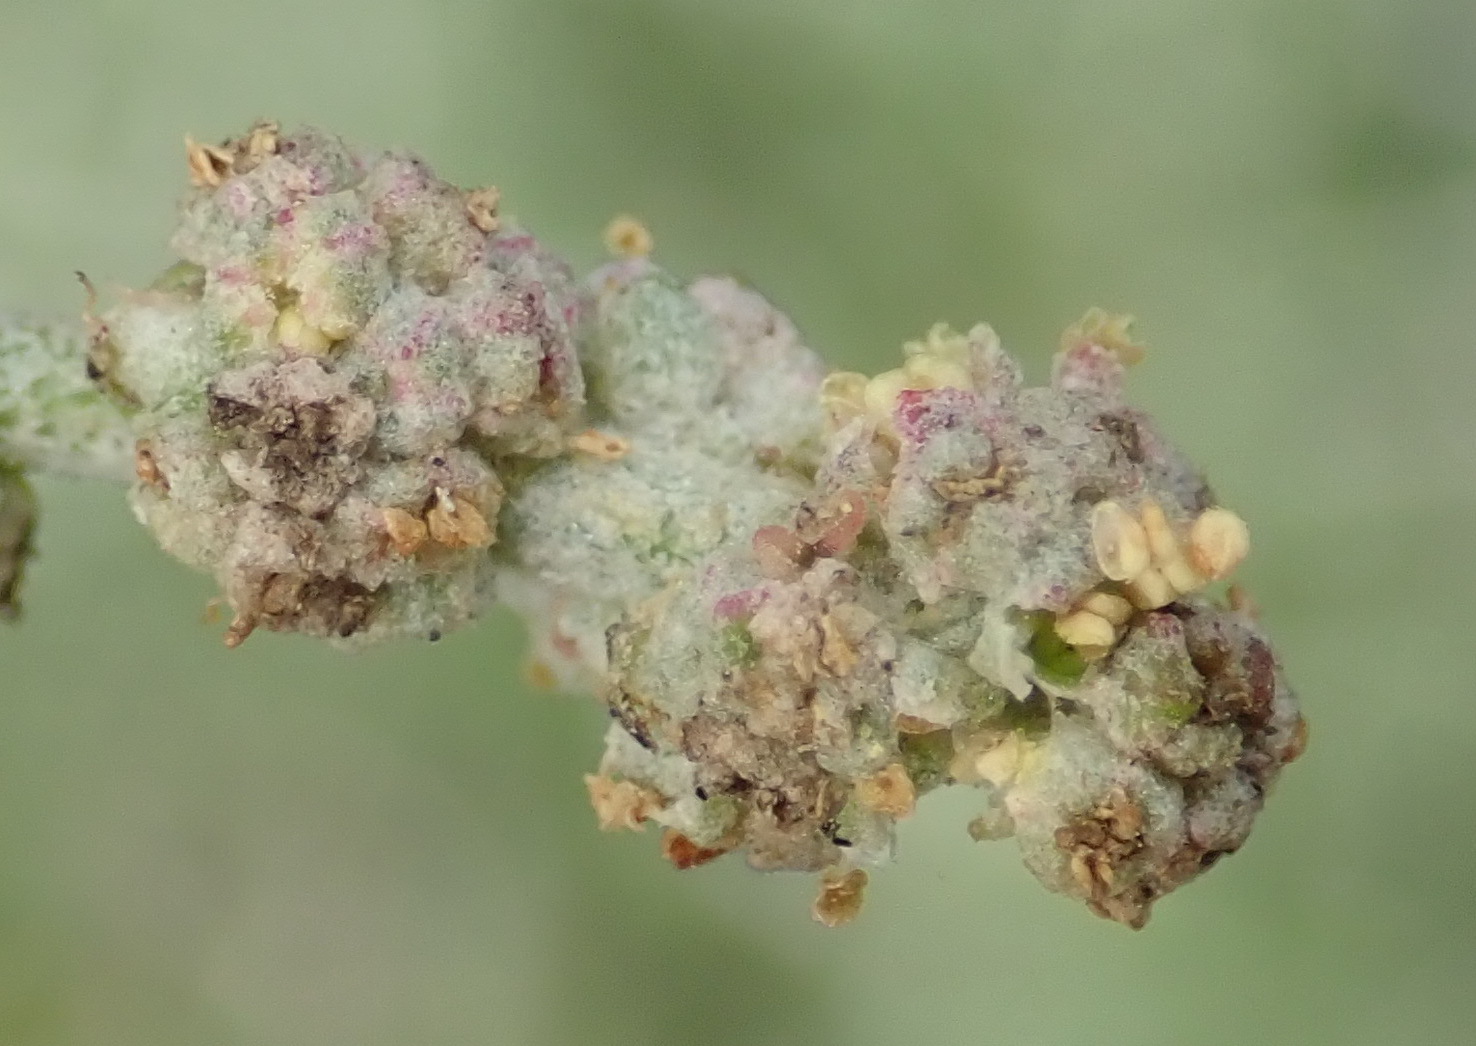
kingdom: Plantae
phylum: Tracheophyta
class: Magnoliopsida
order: Caryophyllales
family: Amaranthaceae
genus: Exomis
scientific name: Exomis albicans
